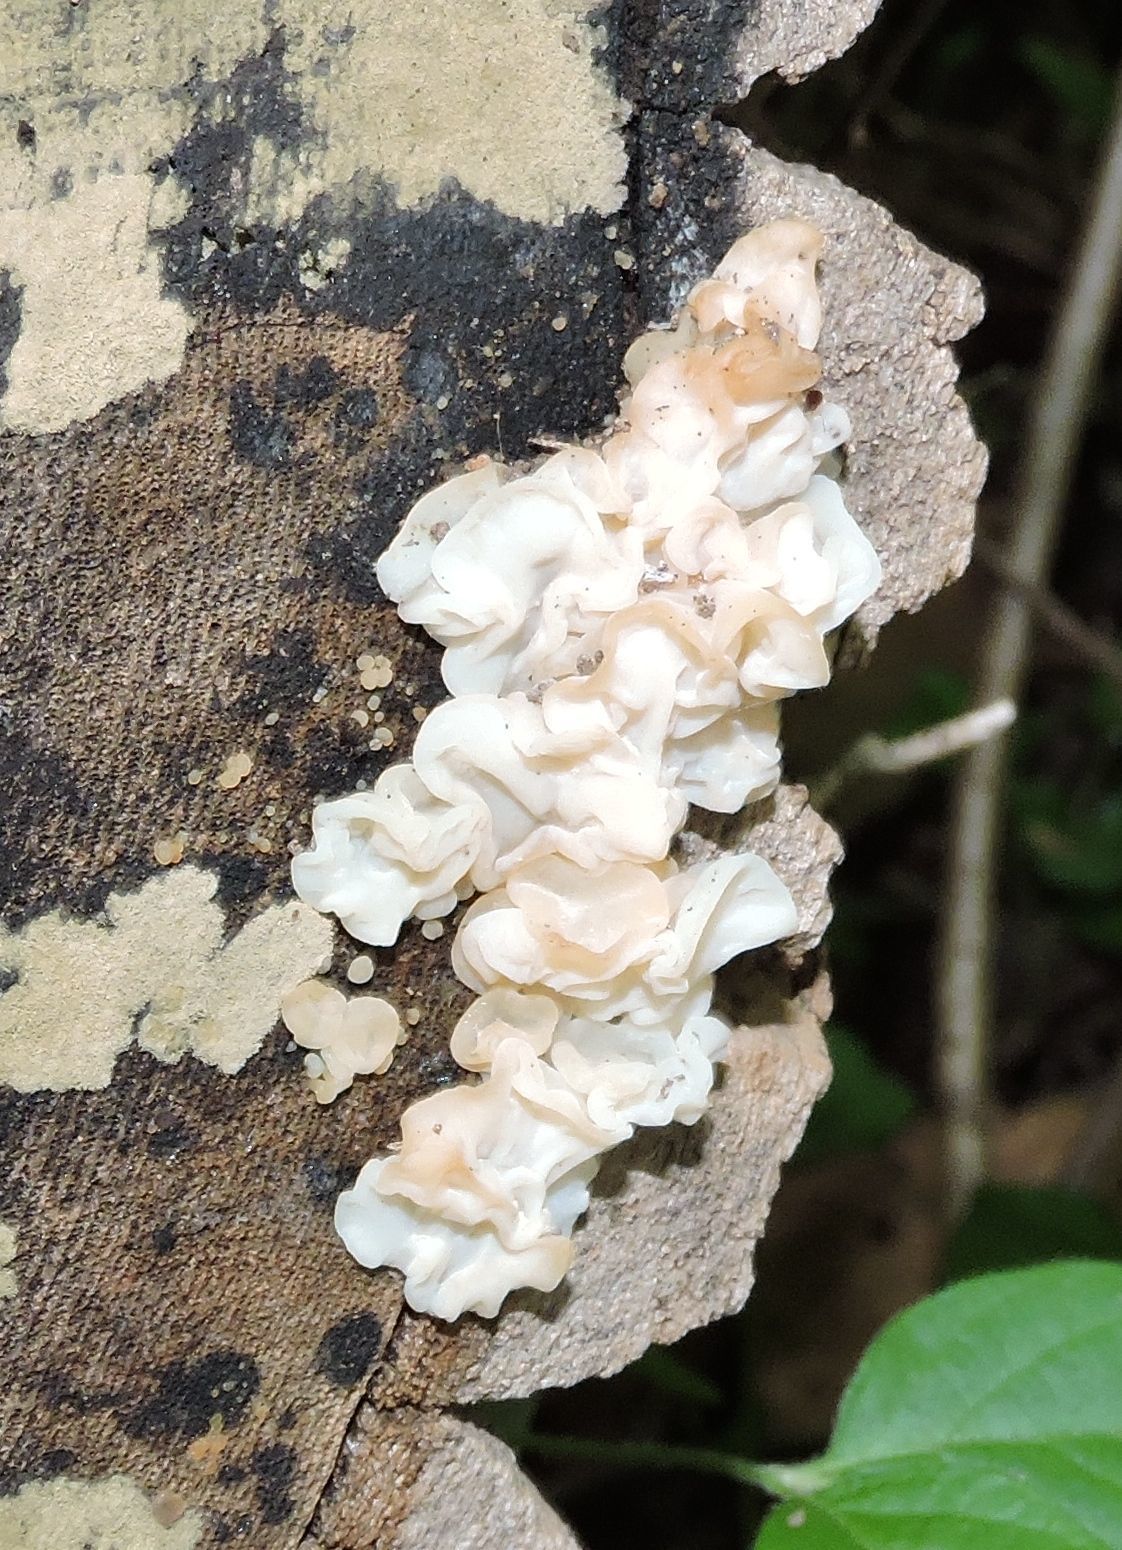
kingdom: Fungi
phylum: Basidiomycota
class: Agaricomycetes
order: Auriculariales
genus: Ductifera
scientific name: Ductifera pululahuana
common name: White jelly fungus
